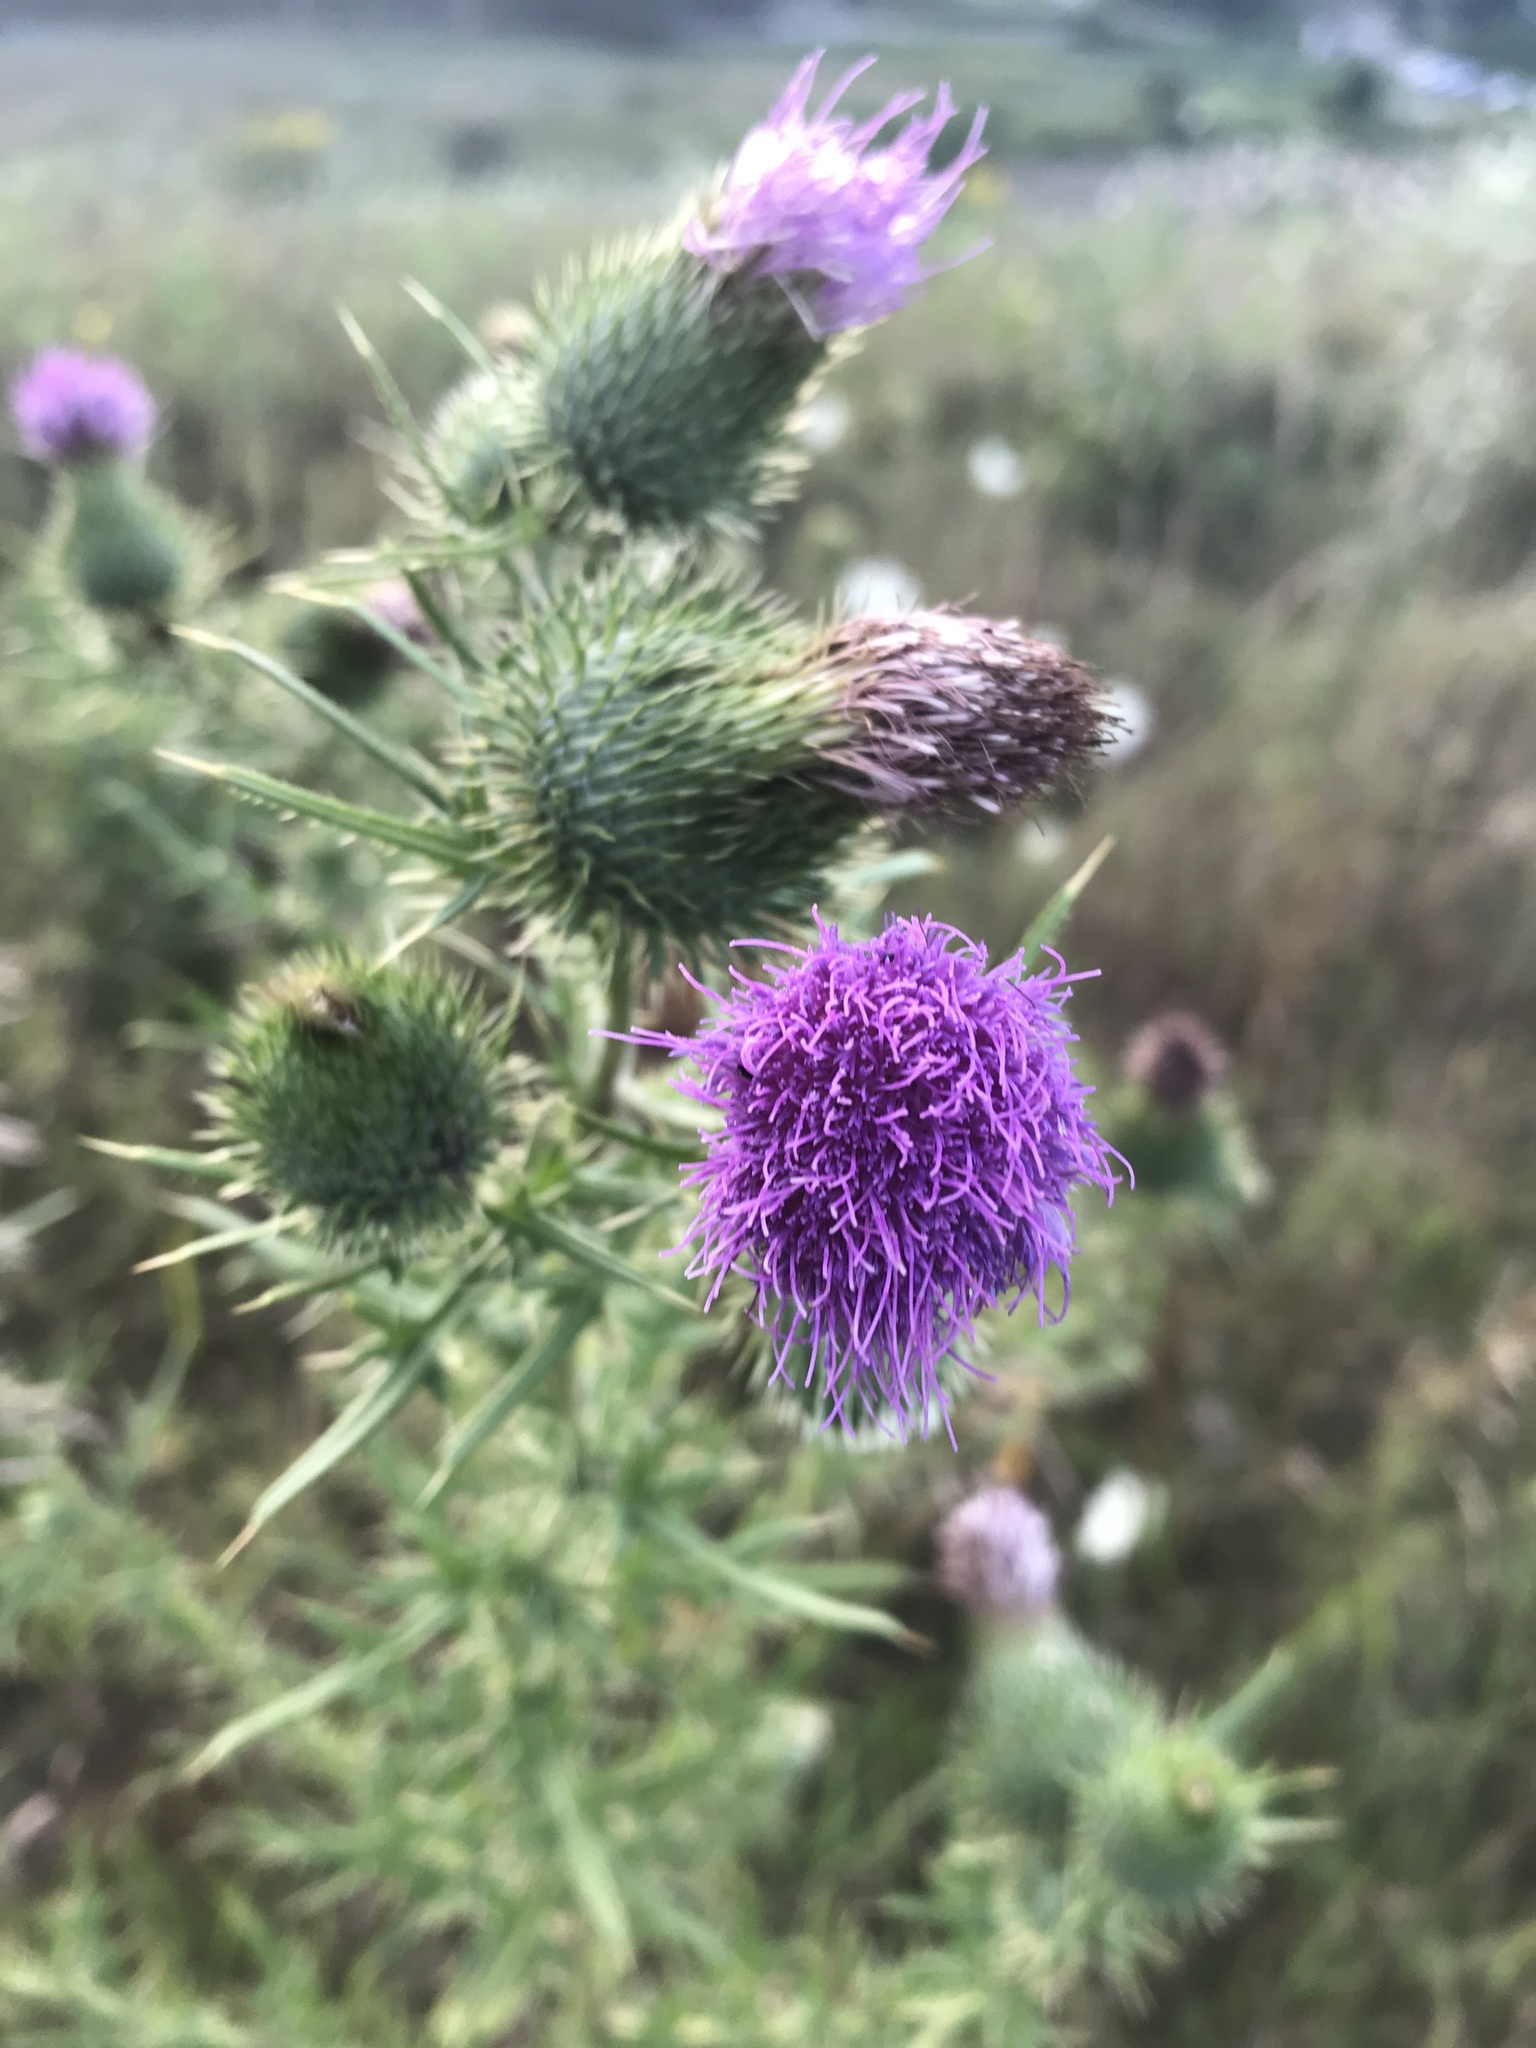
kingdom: Plantae
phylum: Tracheophyta
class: Magnoliopsida
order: Asterales
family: Asteraceae
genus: Cirsium
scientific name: Cirsium vulgare
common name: Bull thistle
